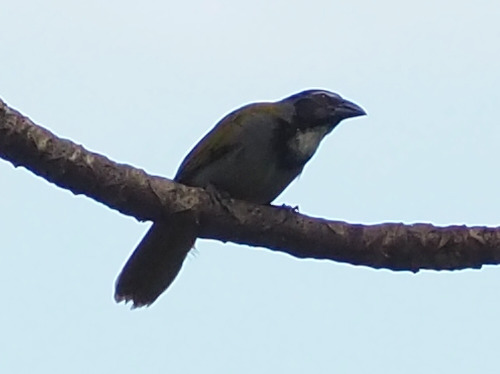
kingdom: Animalia
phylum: Chordata
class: Aves
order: Passeriformes
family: Thraupidae
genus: Saltator
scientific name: Saltator atriceps
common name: Black-headed saltator
